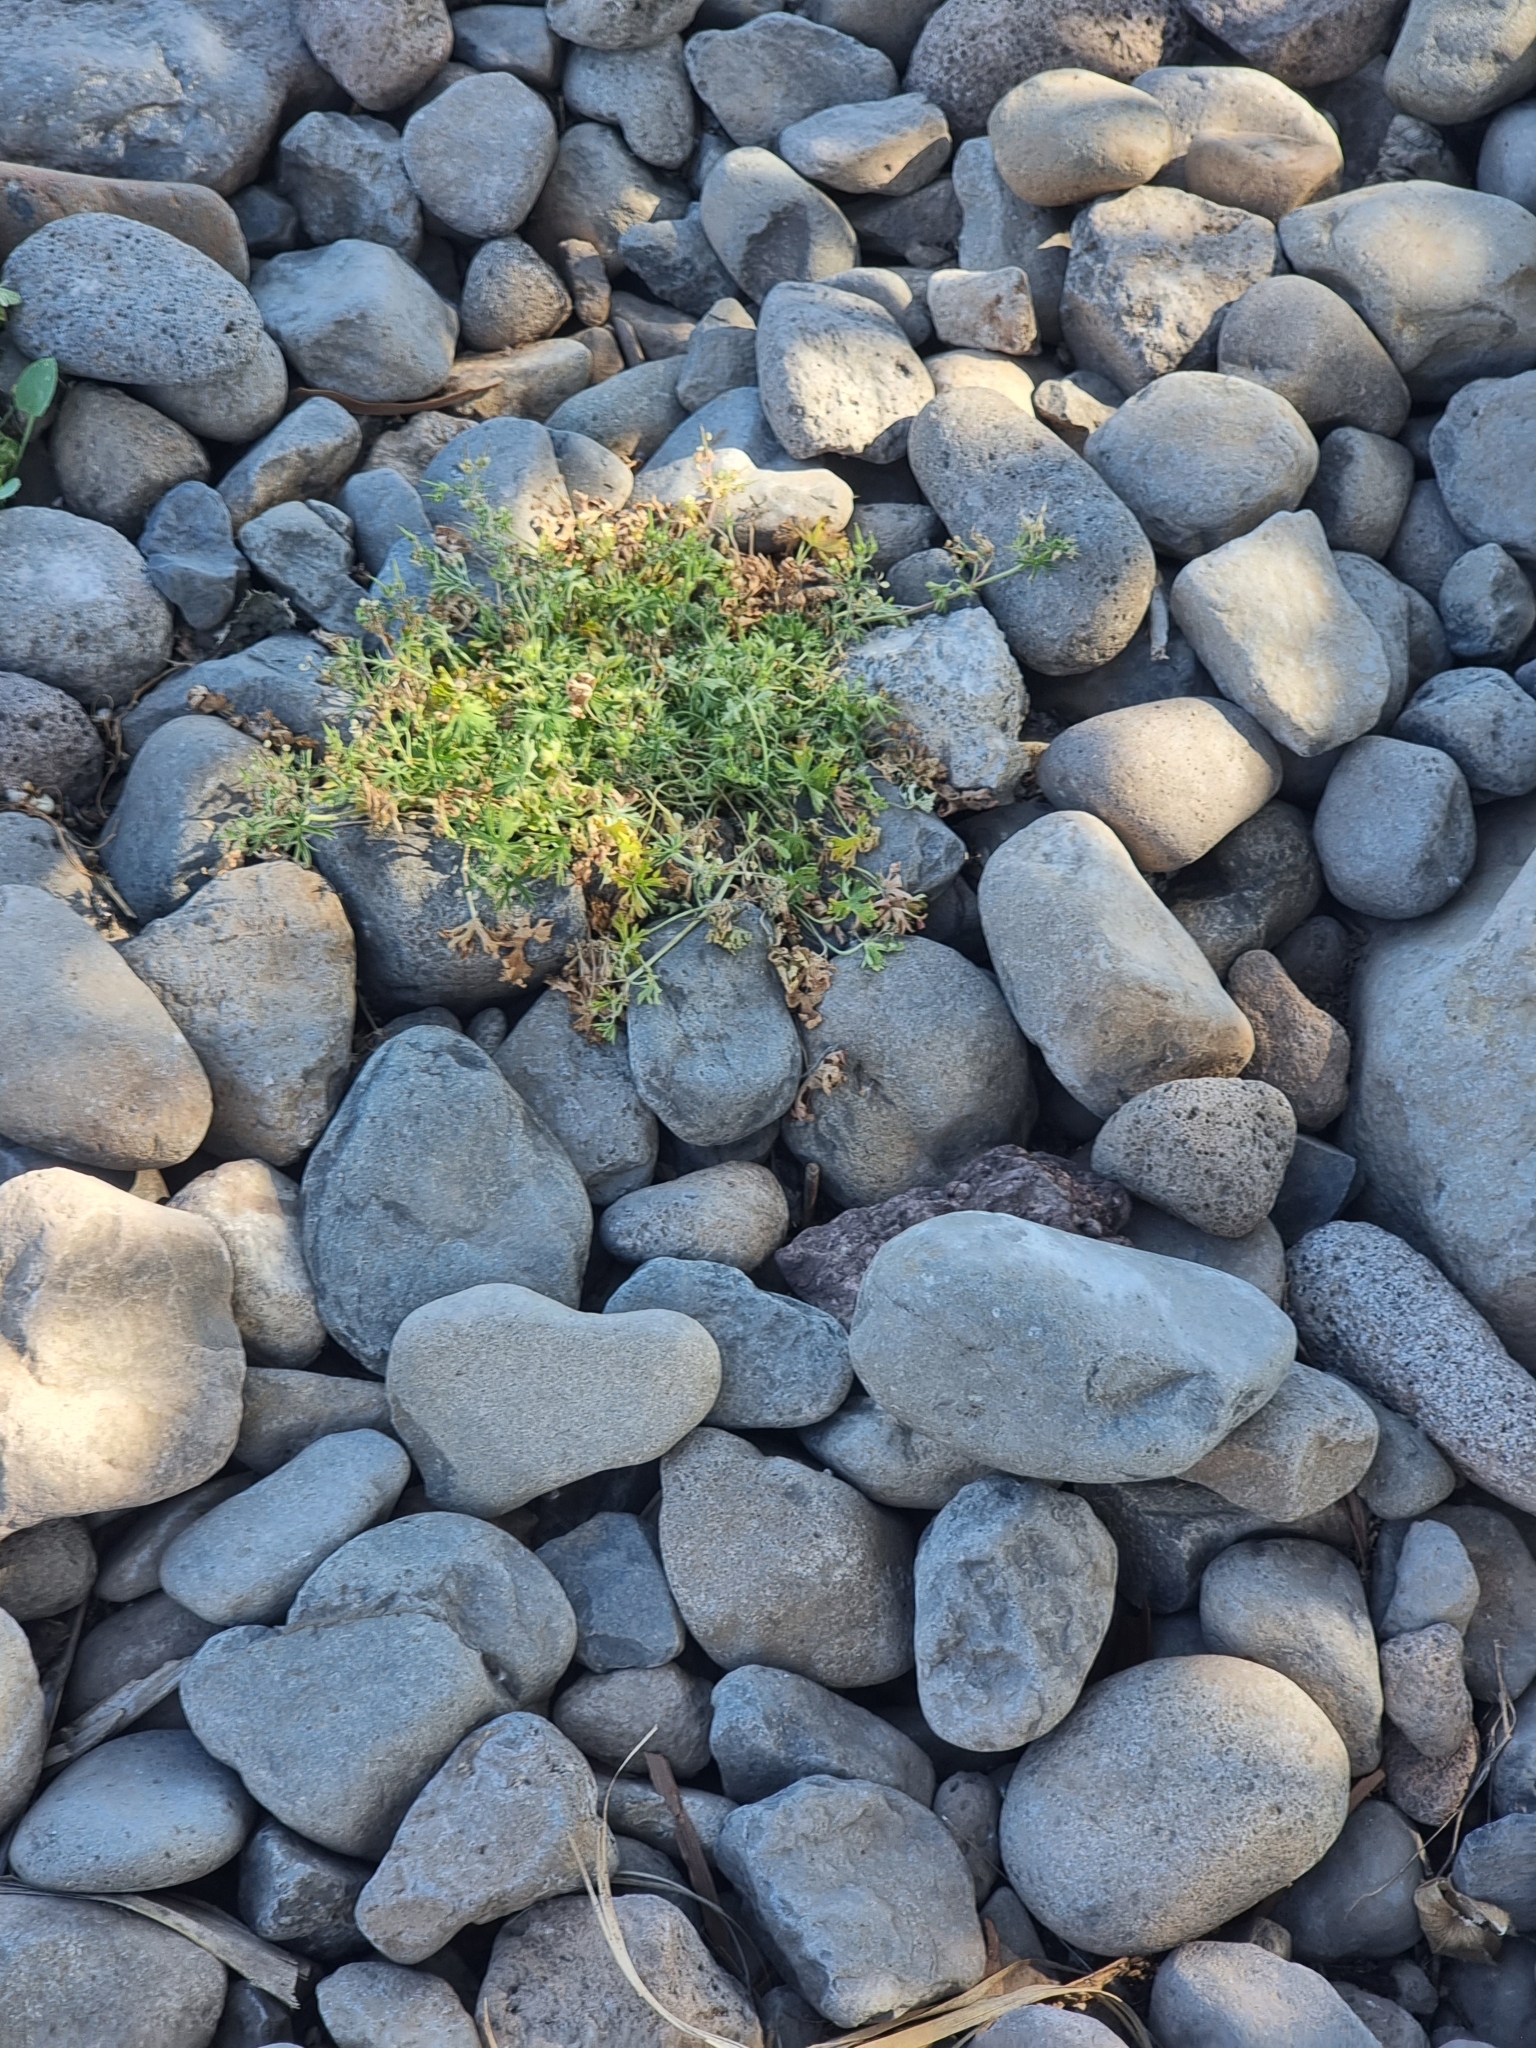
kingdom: Plantae
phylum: Tracheophyta
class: Magnoliopsida
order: Geraniales
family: Geraniaceae
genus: Geranium
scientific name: Geranium dissectum
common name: Cut-leaved crane's-bill
